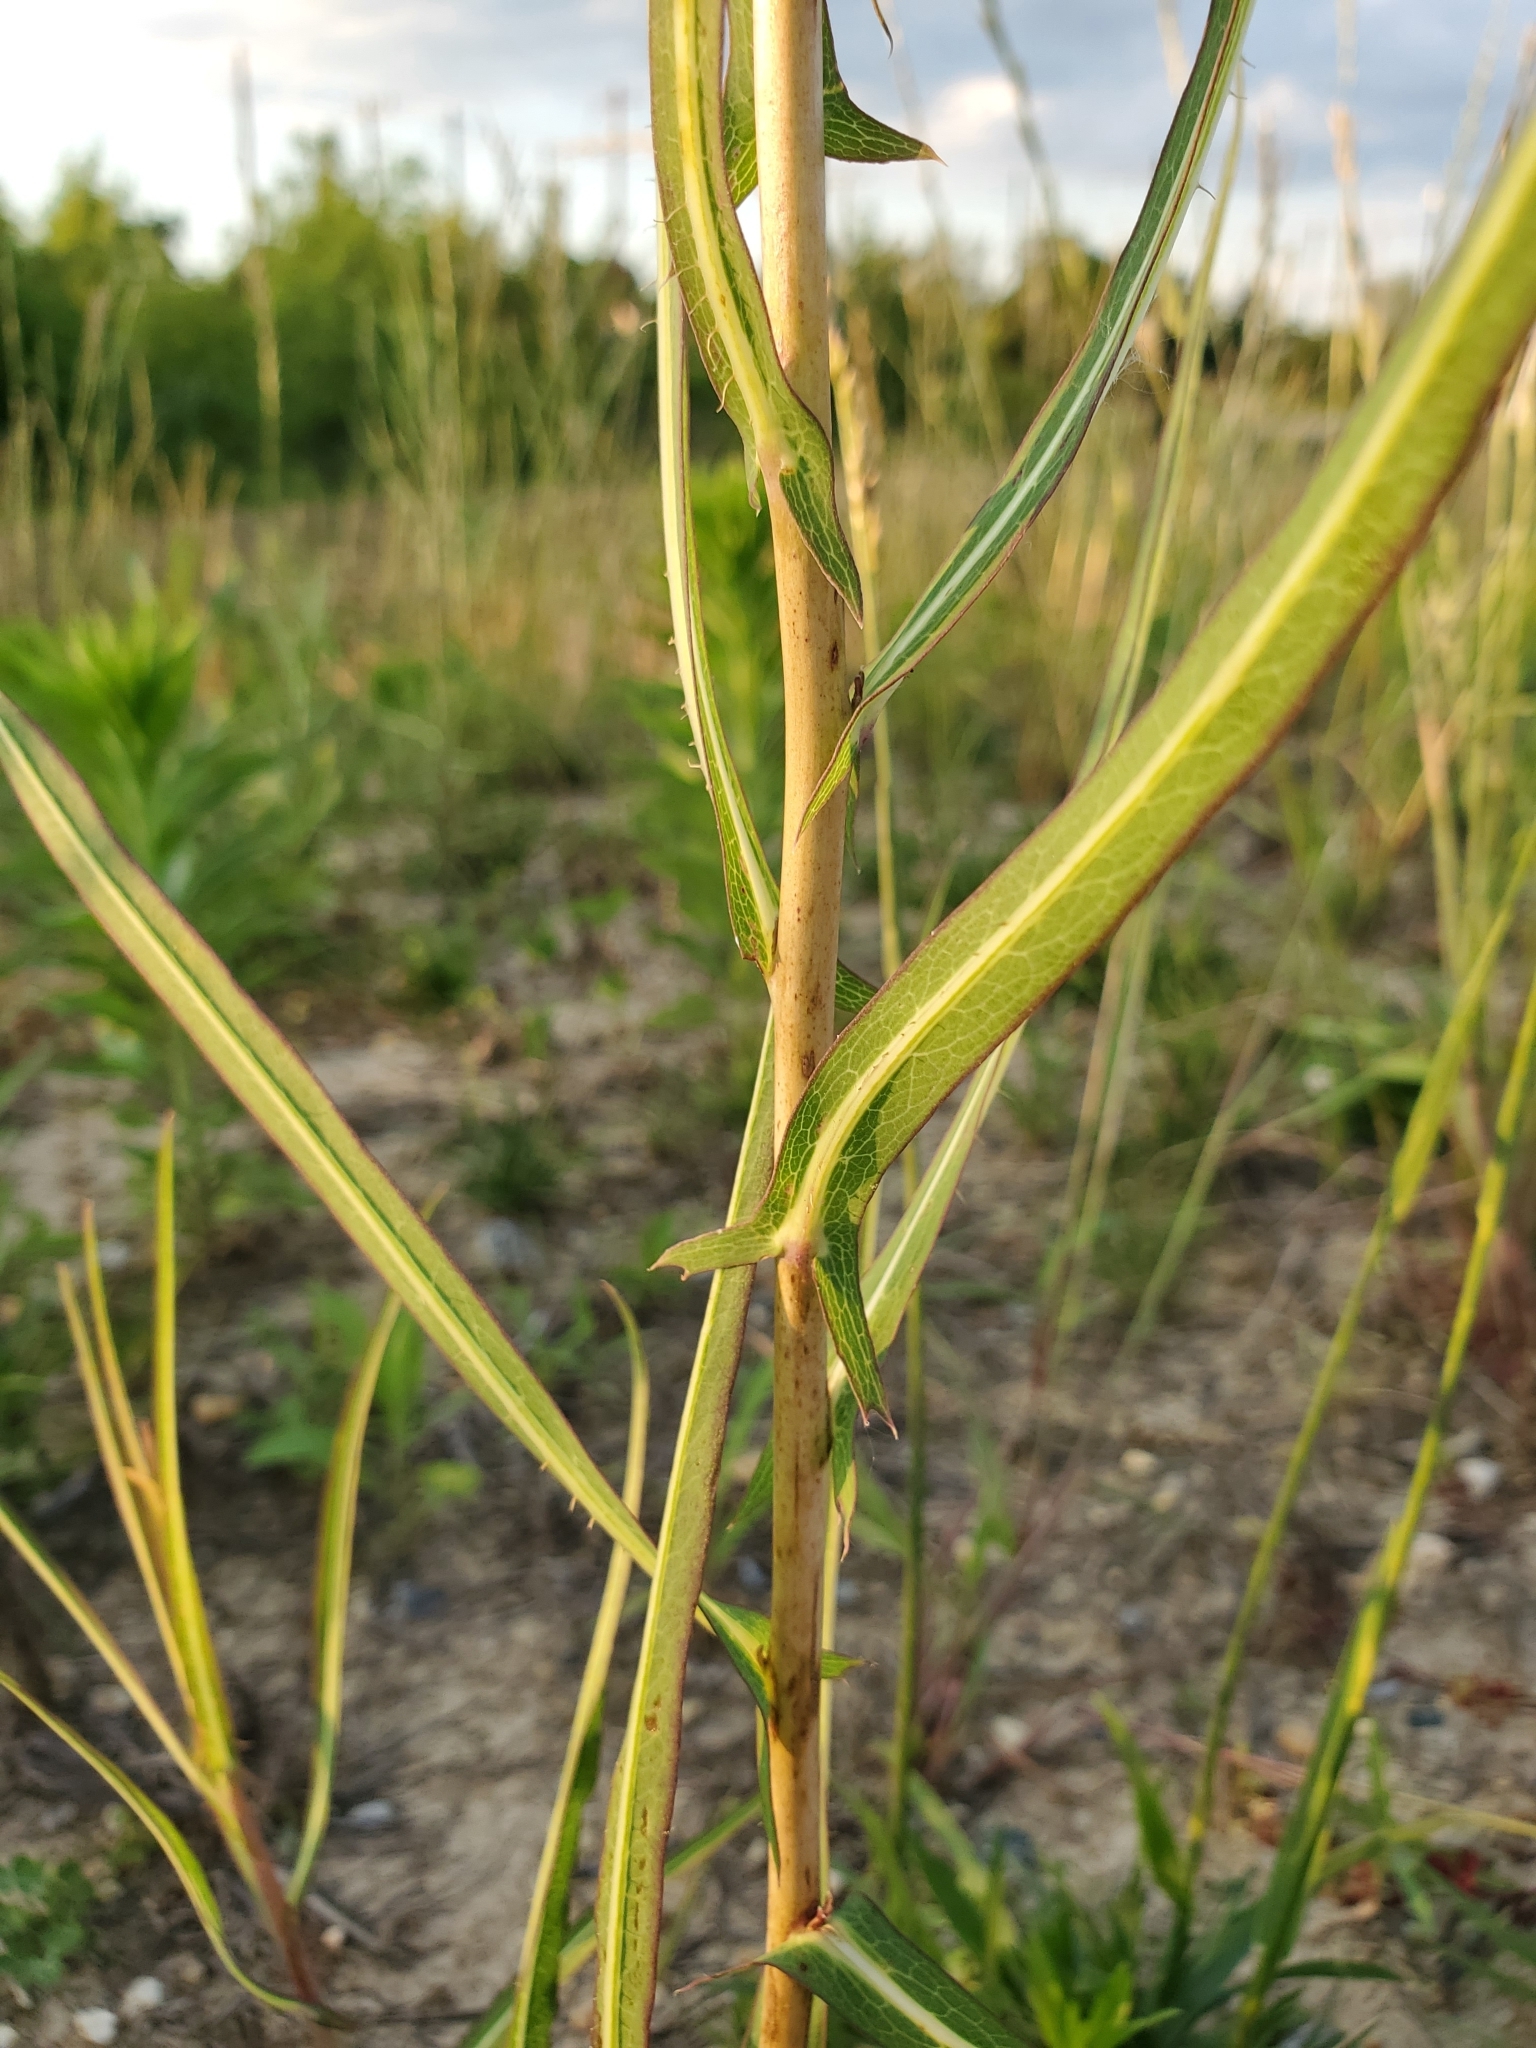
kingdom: Plantae
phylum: Tracheophyta
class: Magnoliopsida
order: Asterales
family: Asteraceae
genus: Lactuca
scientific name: Lactuca saligna
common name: Wild lettuce
